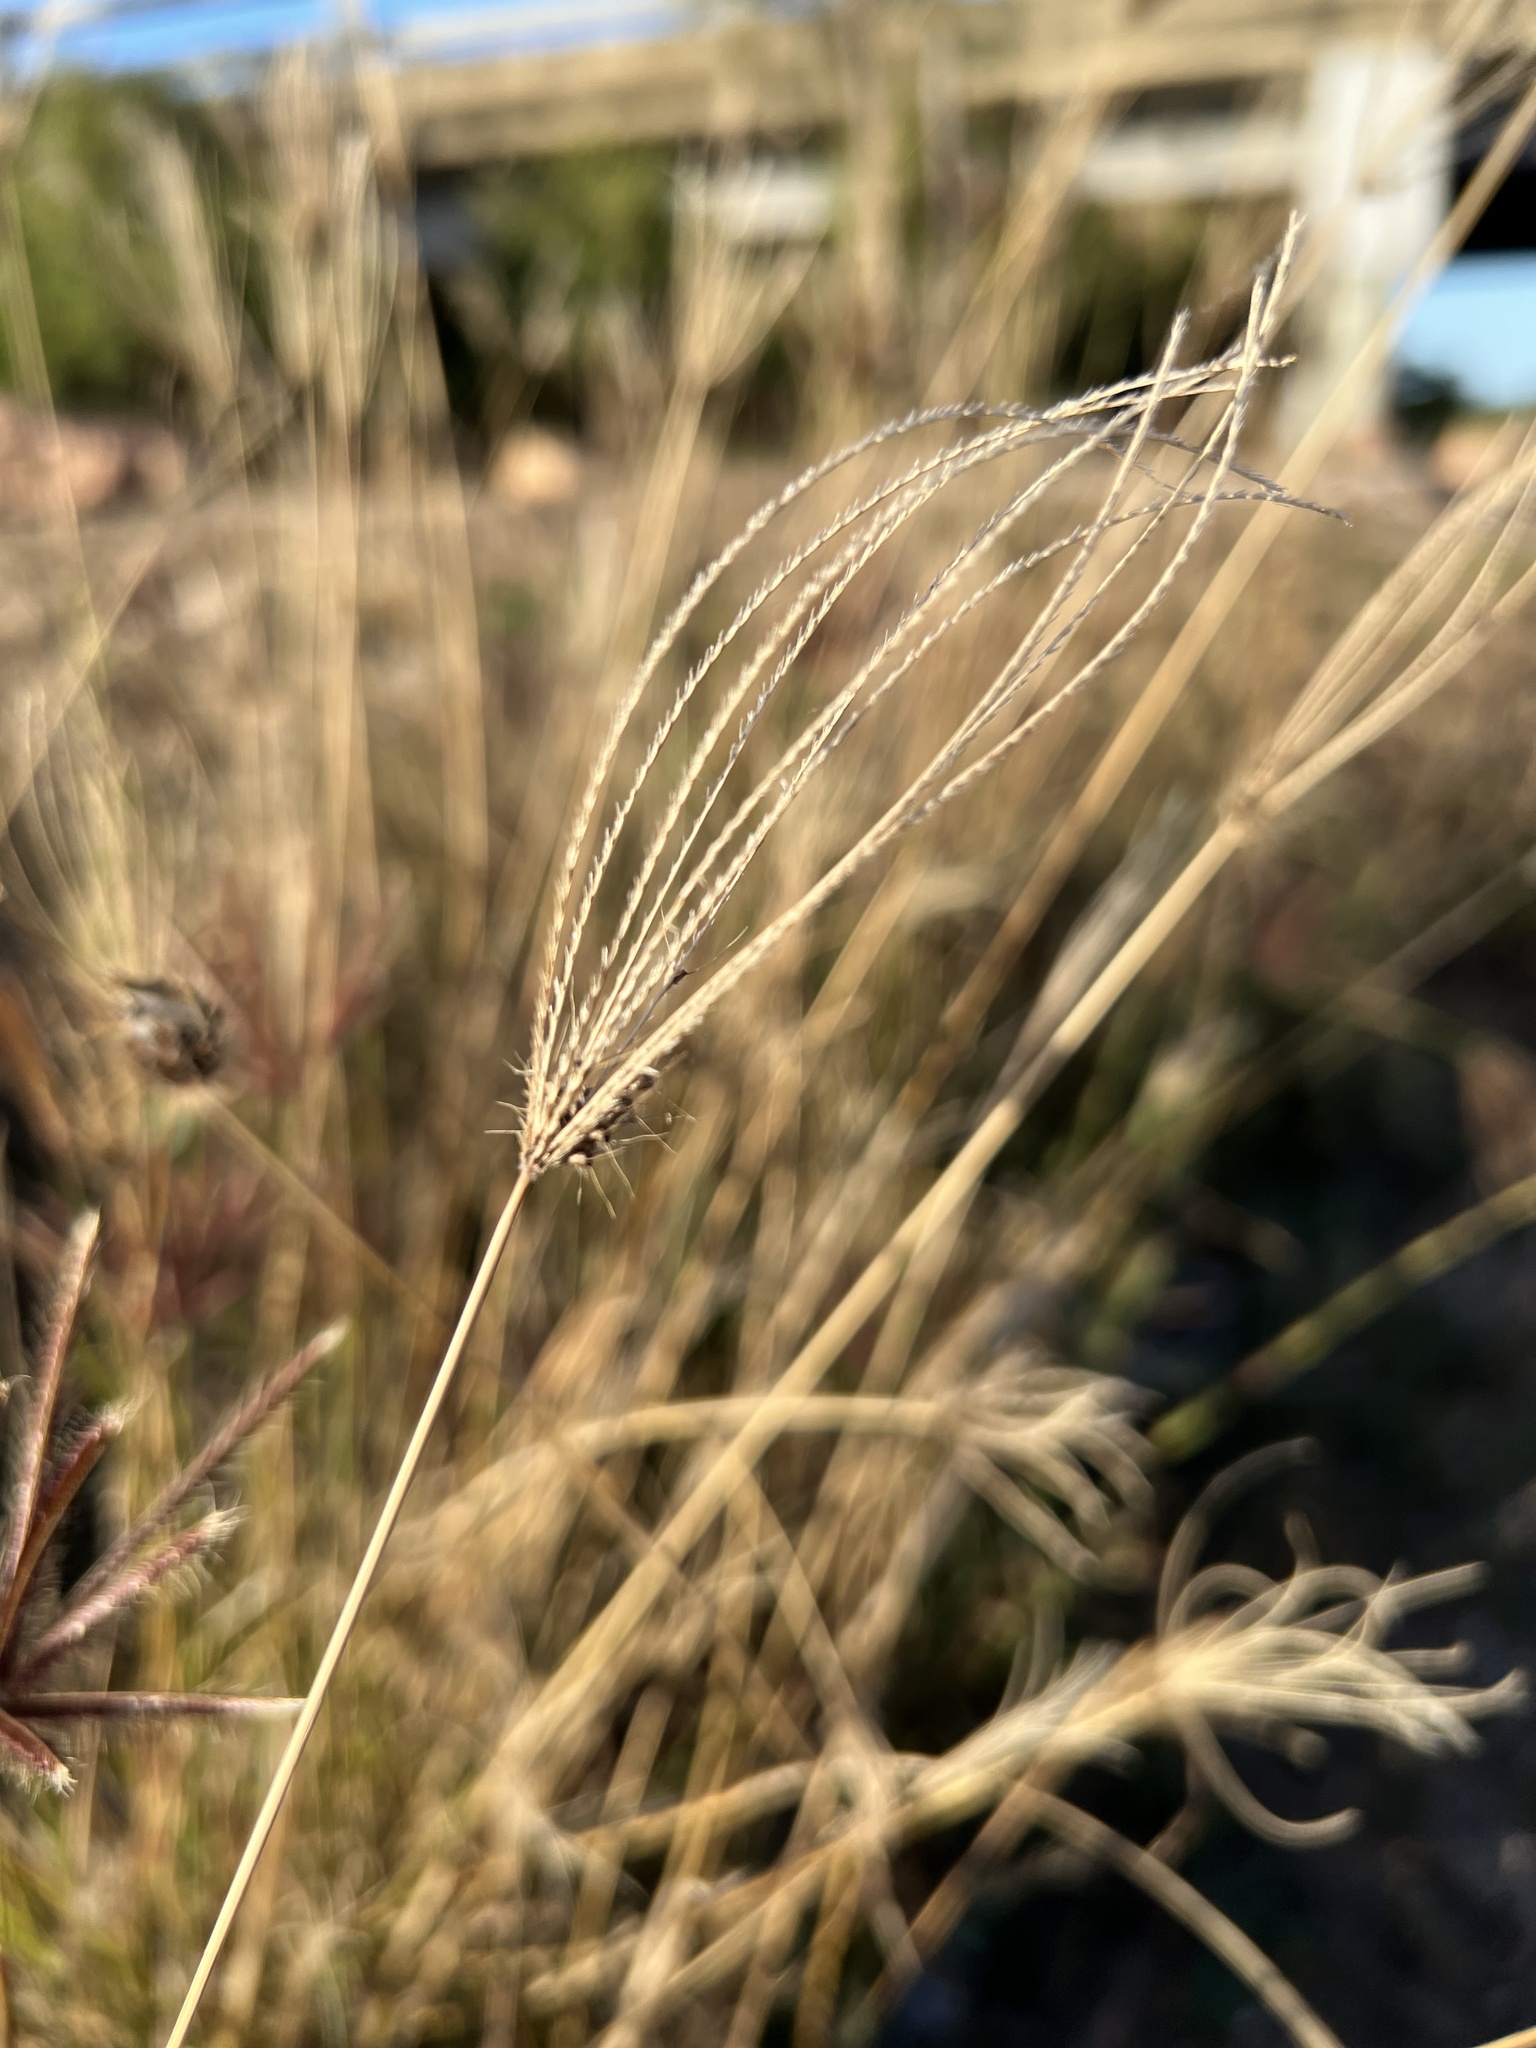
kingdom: Plantae
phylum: Tracheophyta
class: Liliopsida
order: Poales
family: Poaceae
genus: Chloris
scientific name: Chloris barbata
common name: Swollen fingergrass
